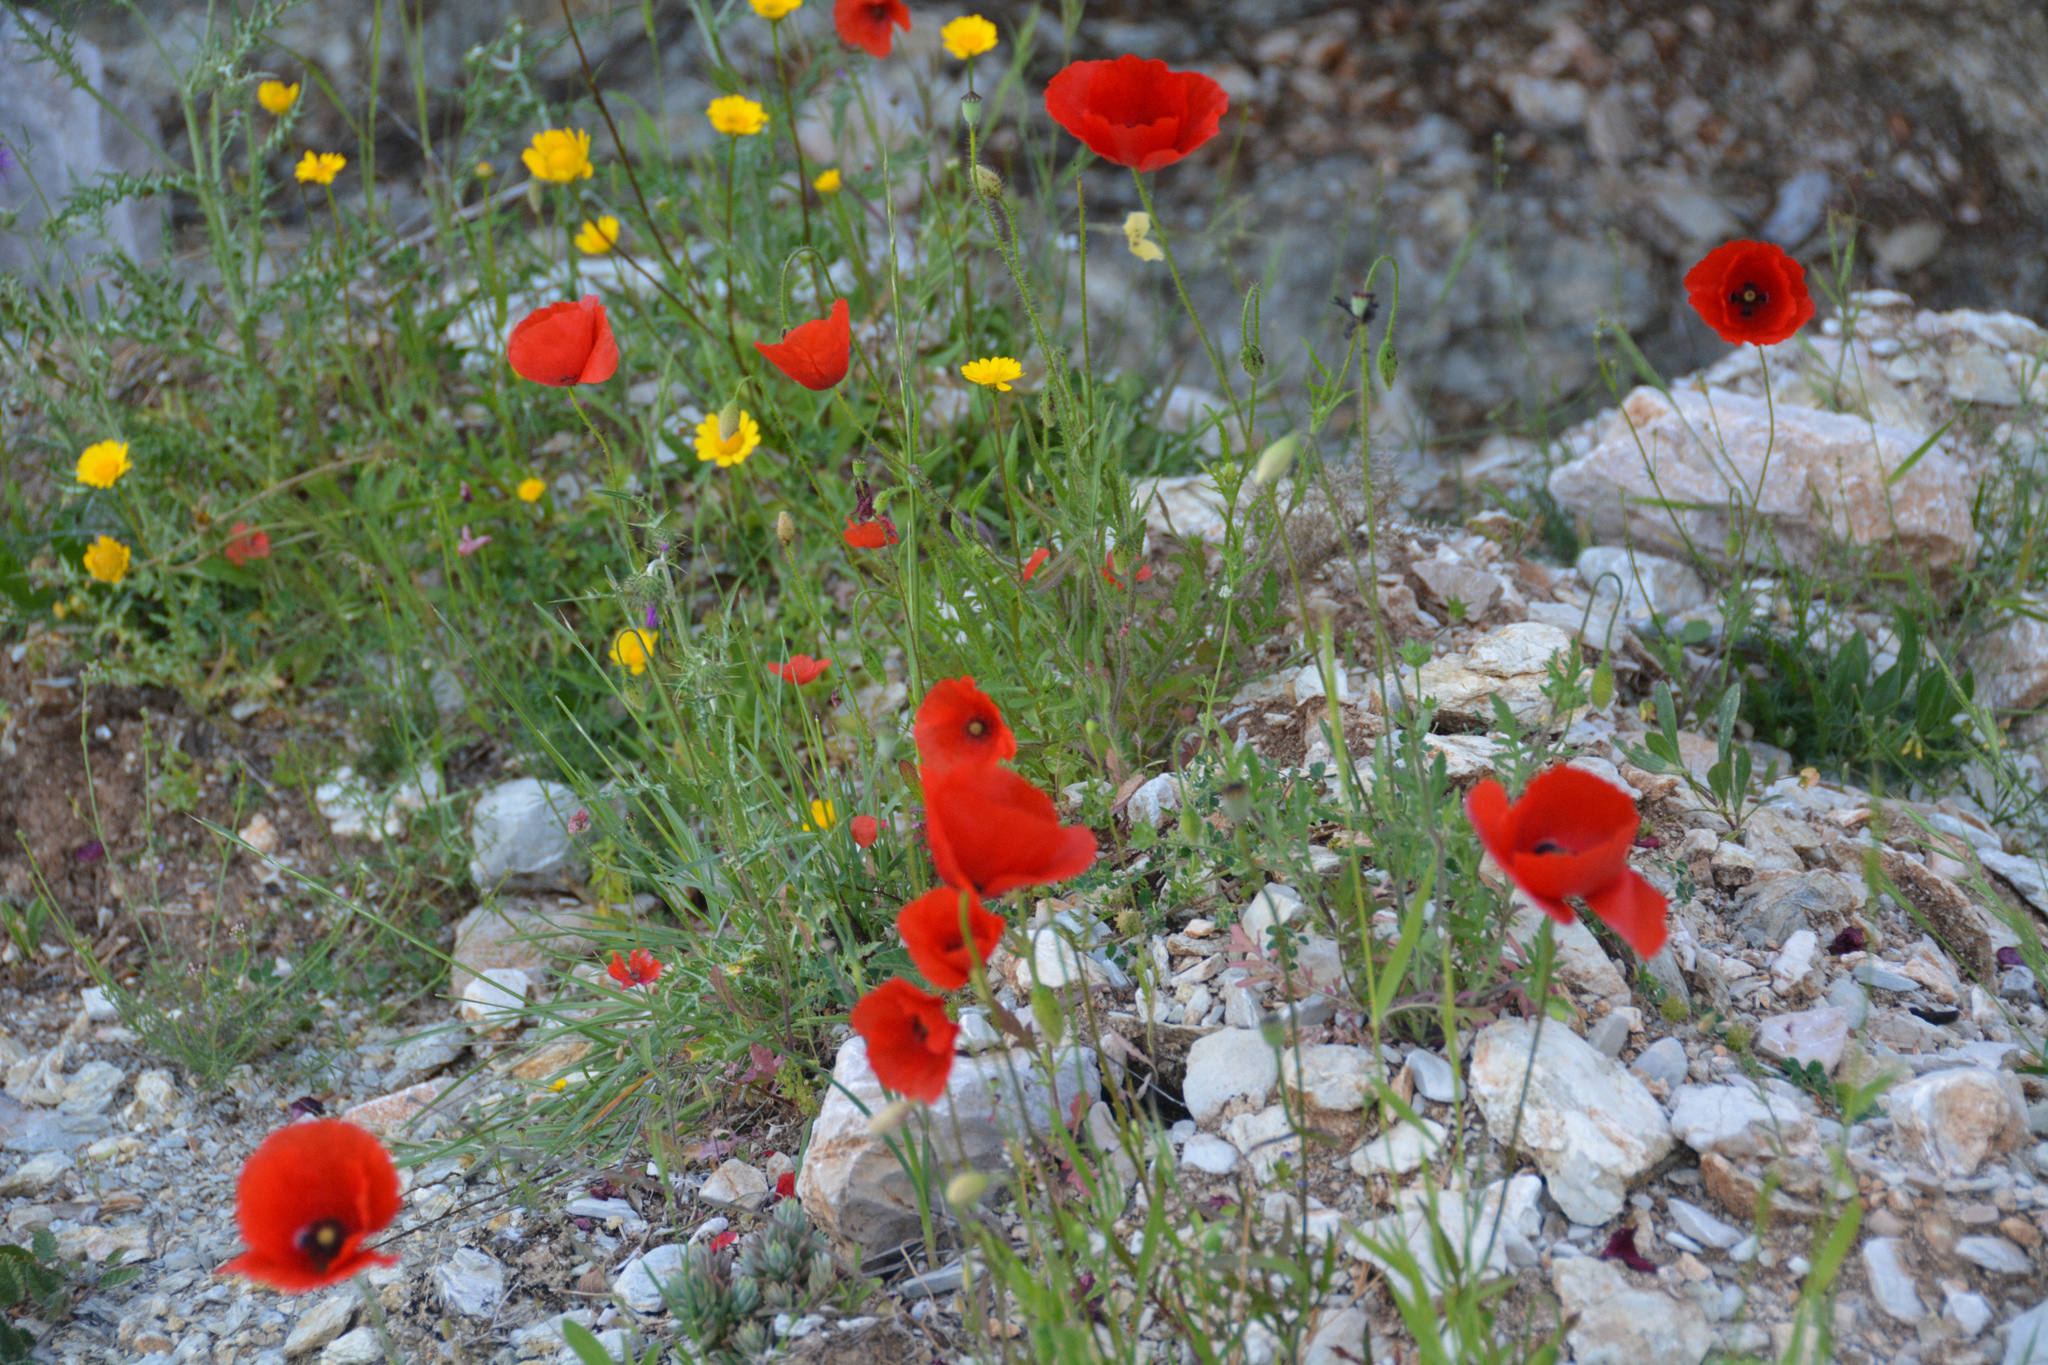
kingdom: Plantae
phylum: Tracheophyta
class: Magnoliopsida
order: Ranunculales
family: Papaveraceae
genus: Papaver
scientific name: Papaver rhoeas
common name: Corn poppy
